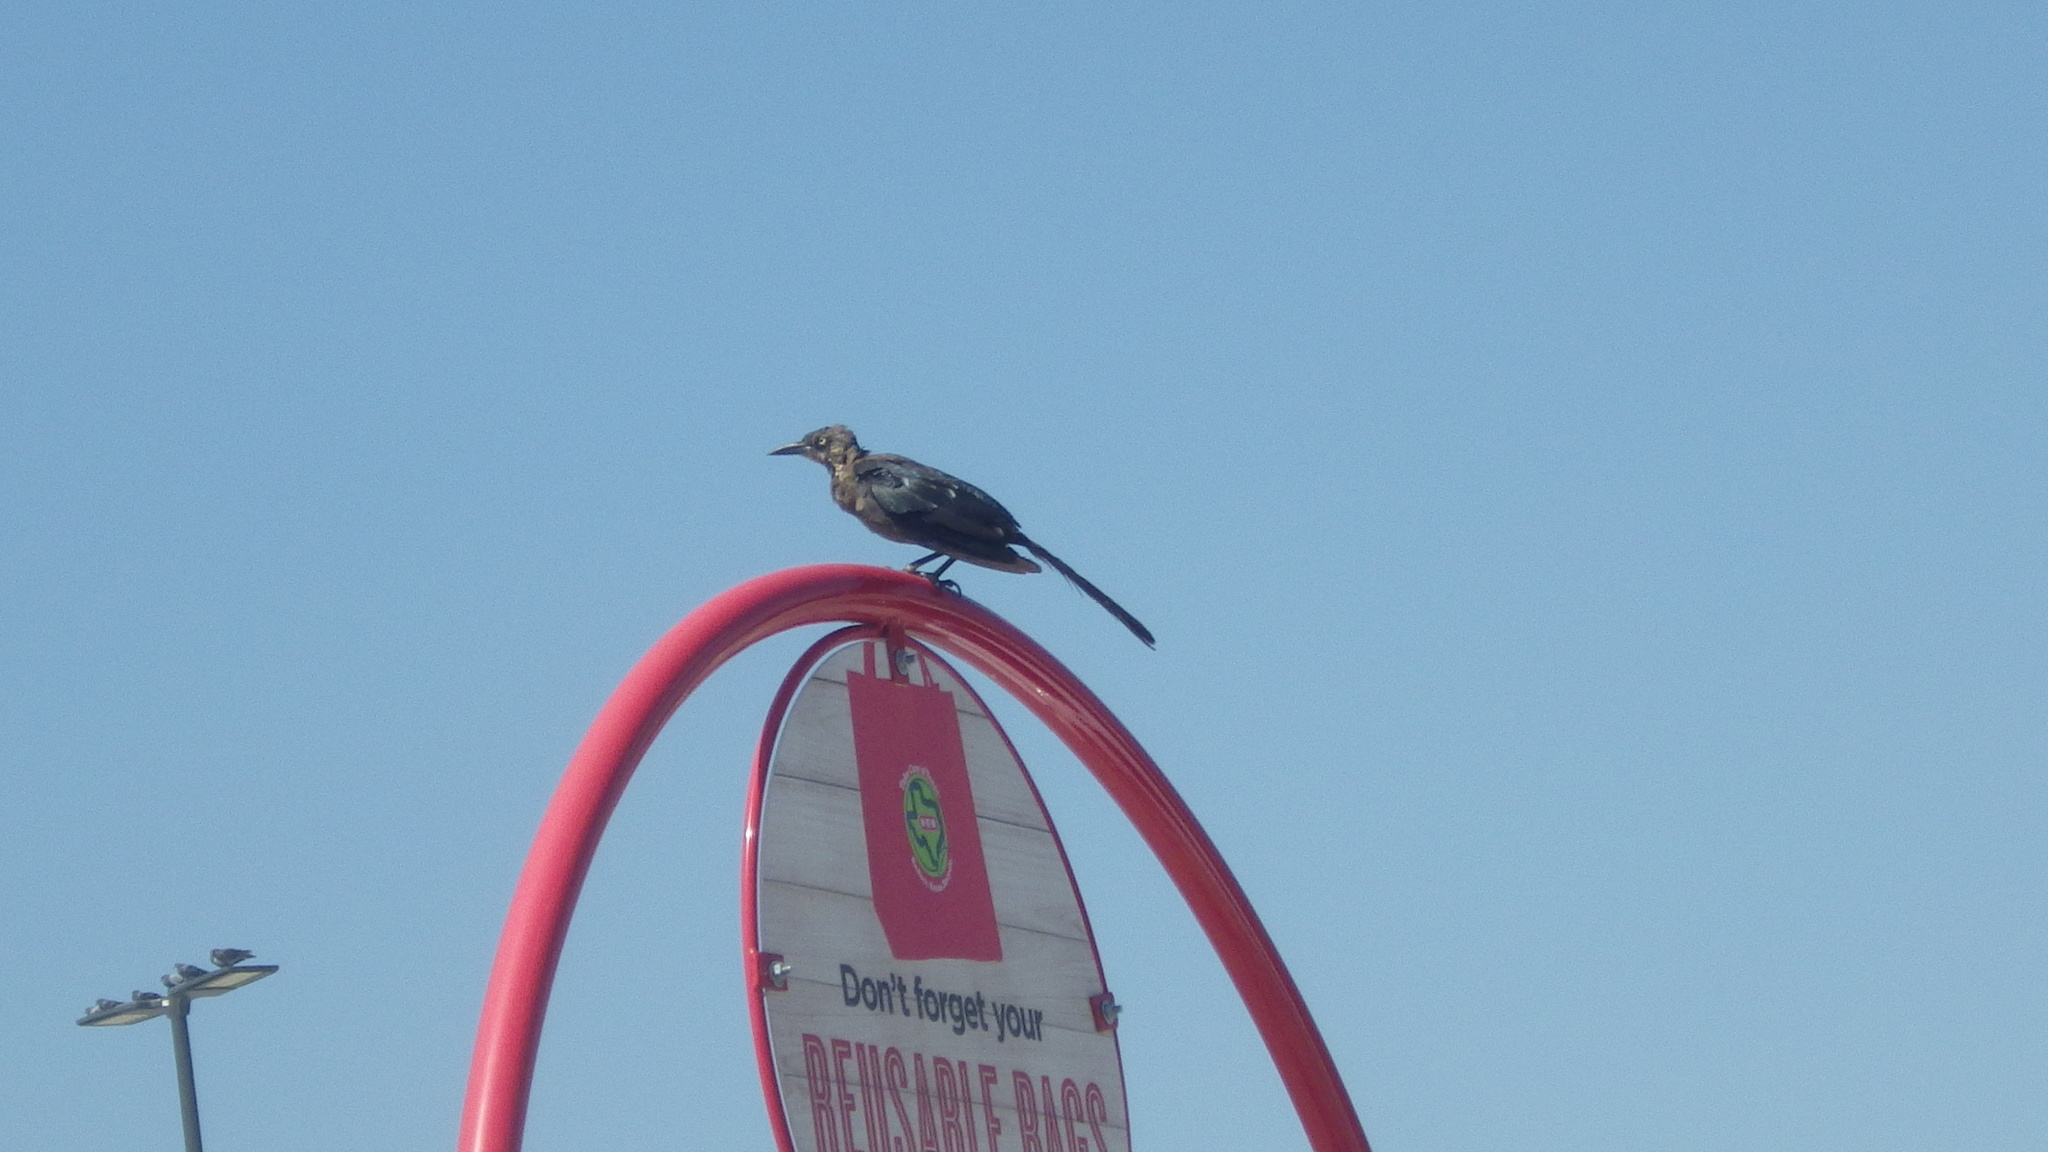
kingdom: Animalia
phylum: Chordata
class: Aves
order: Passeriformes
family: Icteridae
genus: Quiscalus
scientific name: Quiscalus mexicanus
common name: Great-tailed grackle
